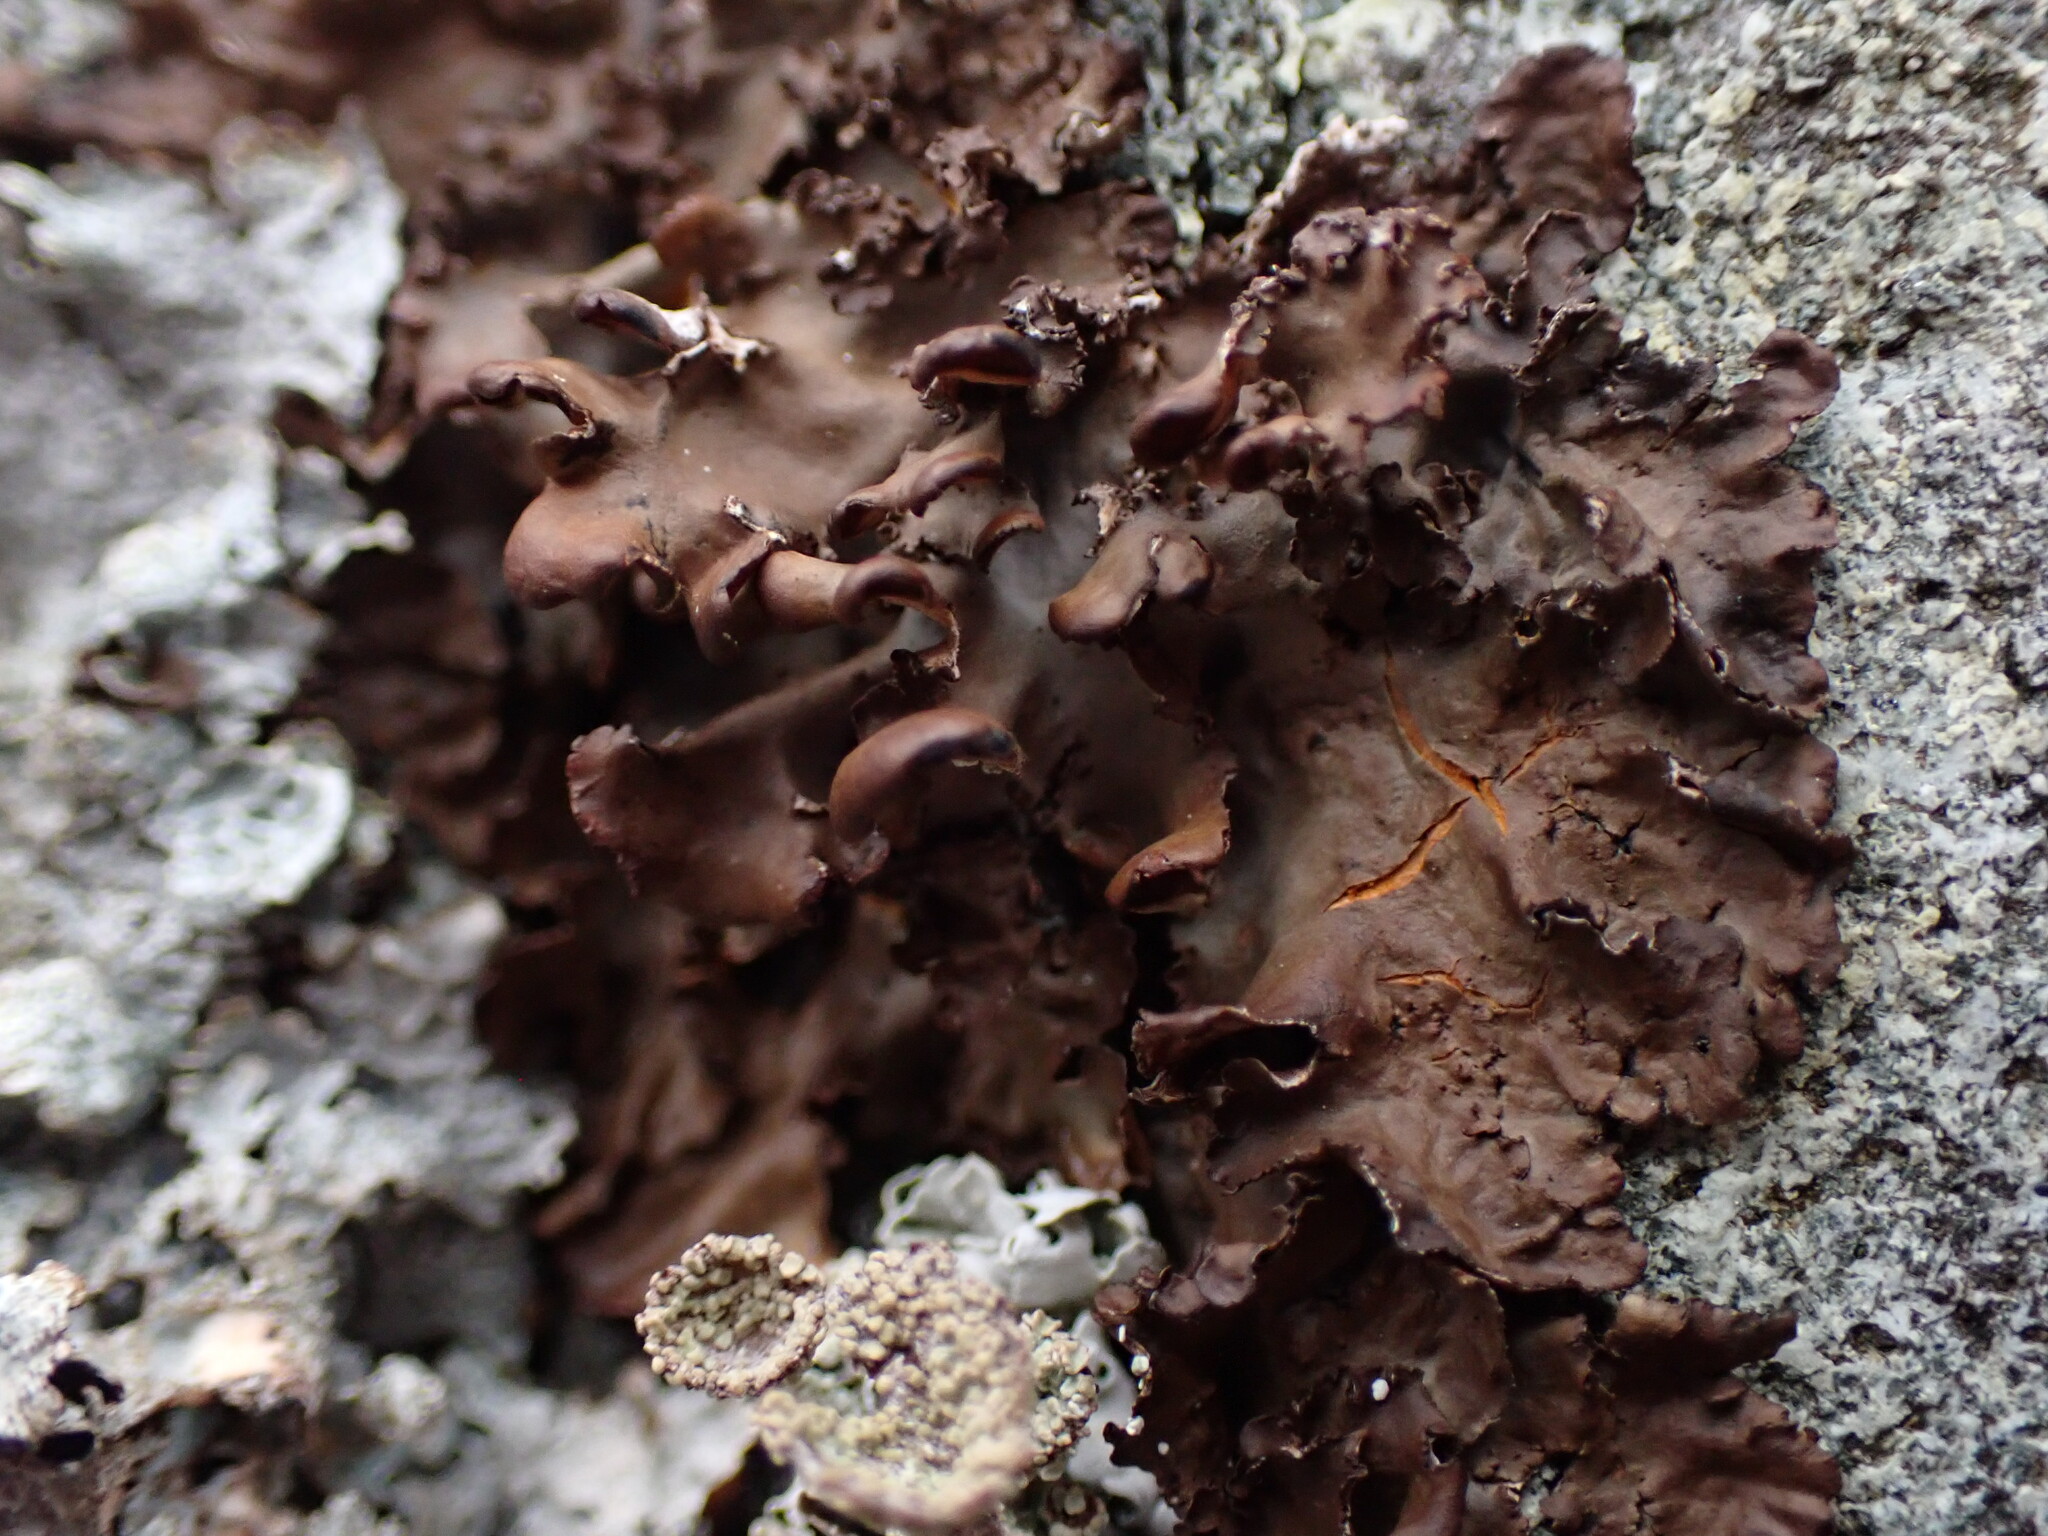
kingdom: Fungi
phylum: Ascomycota
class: Lecanoromycetes
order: Peltigerales
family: Nephromataceae
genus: Nephroma
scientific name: Nephroma laevigatum
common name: Mustard kidney lichen
